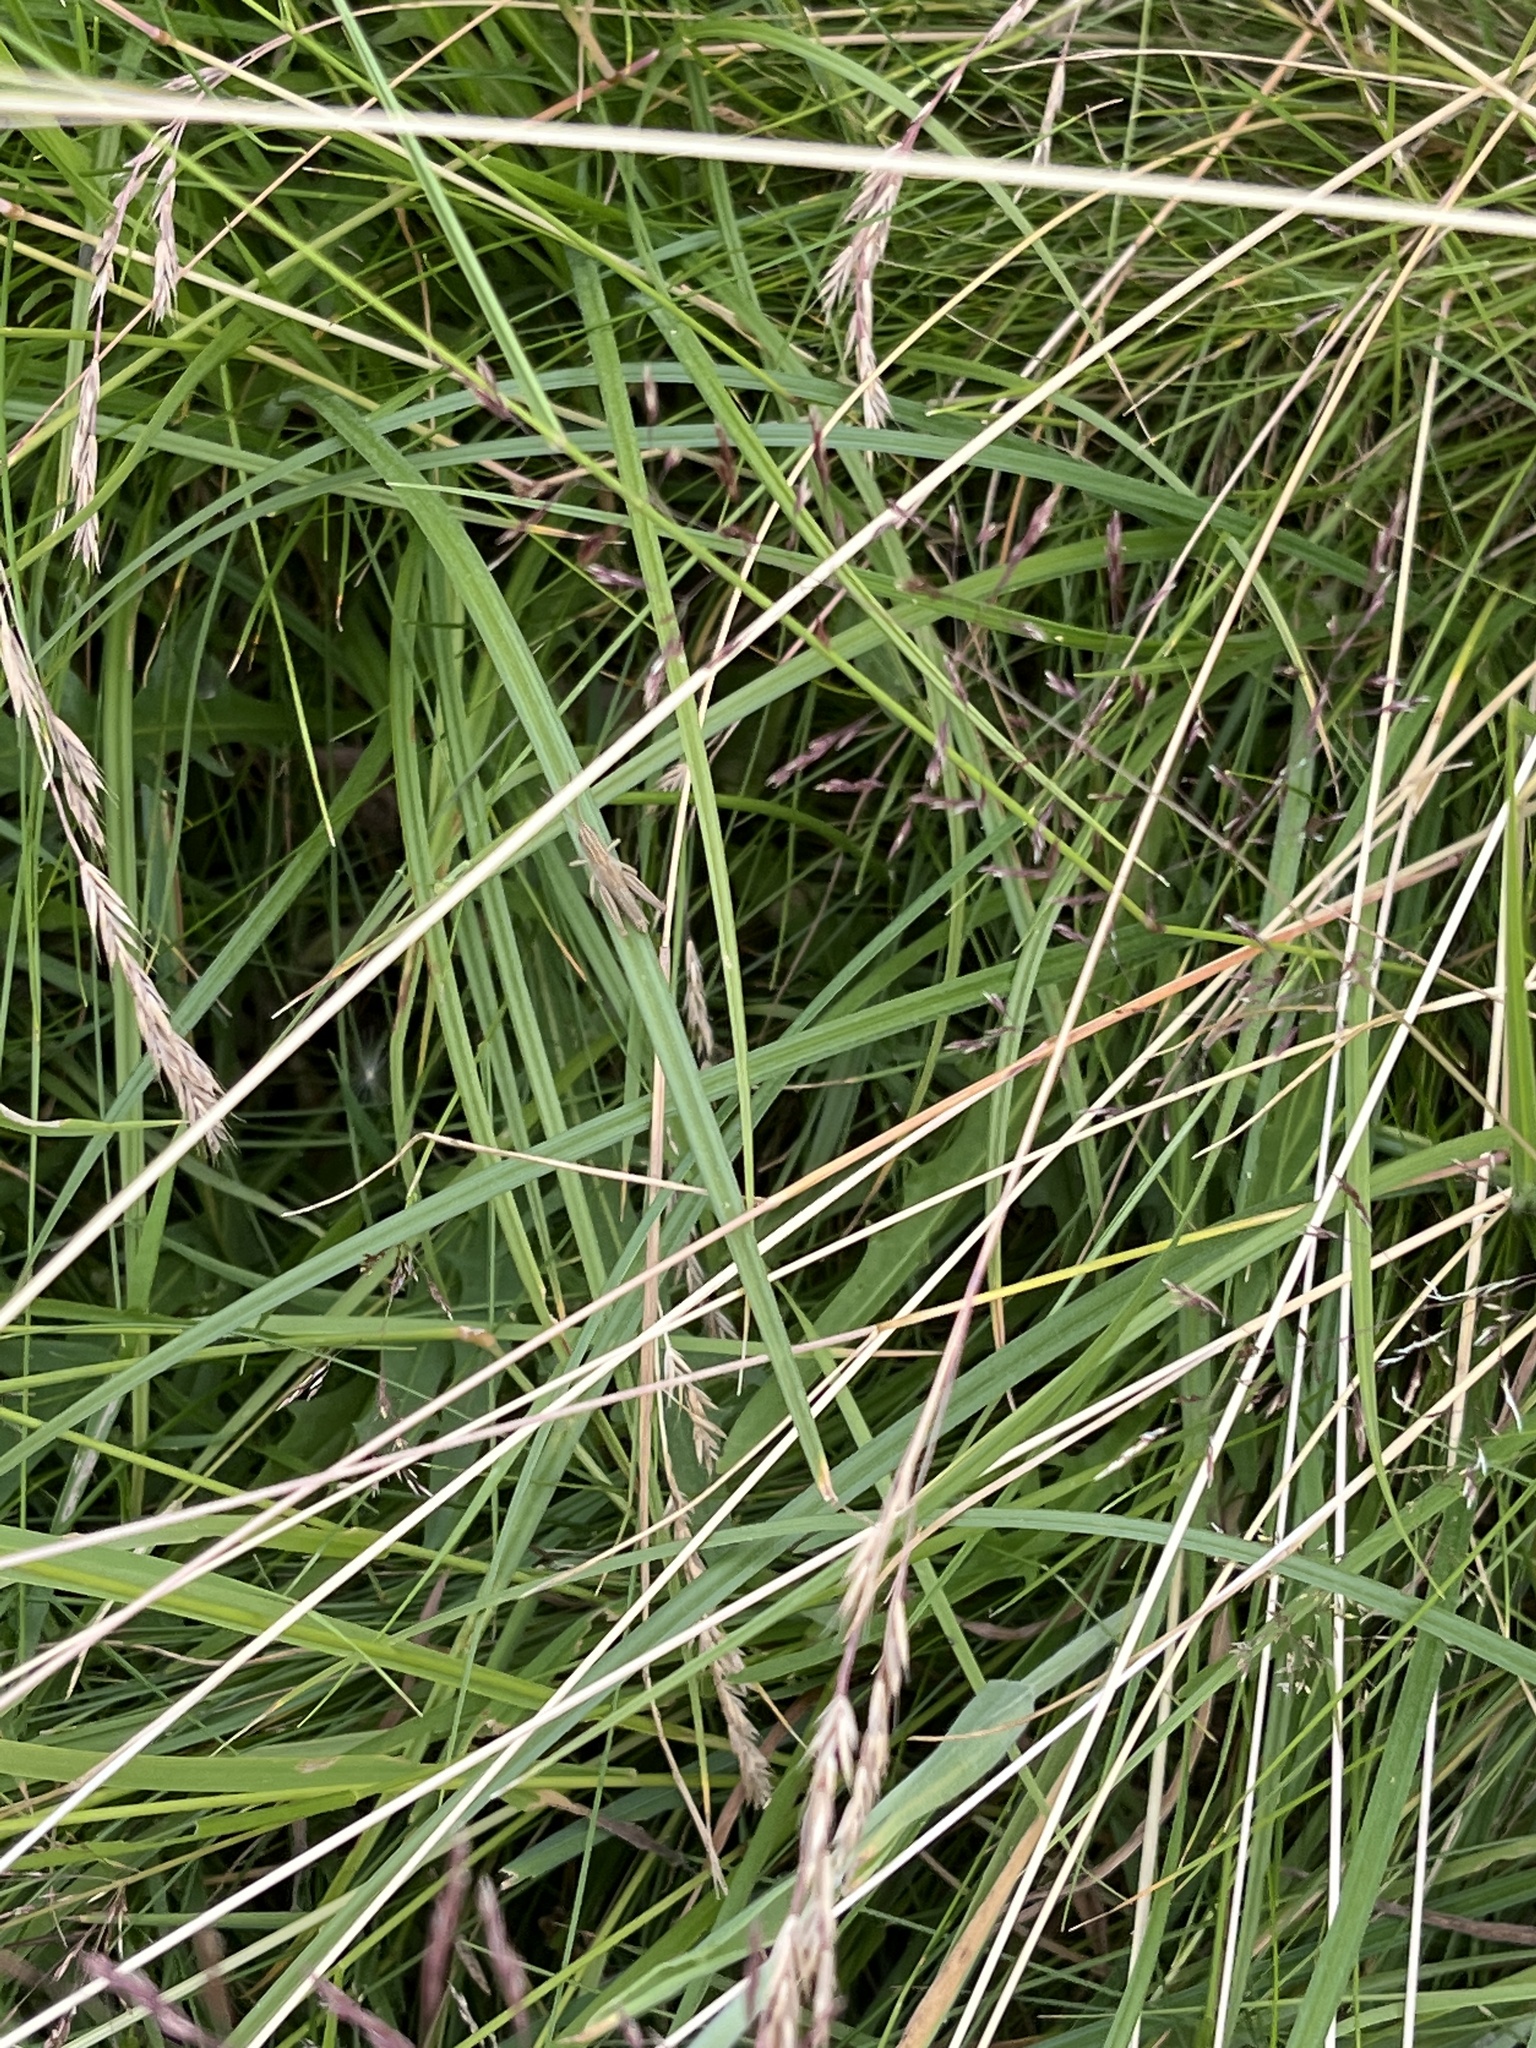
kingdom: Animalia
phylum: Arthropoda
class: Insecta
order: Orthoptera
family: Acrididae
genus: Chorthippus
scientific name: Chorthippus albomarginatus
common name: Lesser marsh grasshopper
